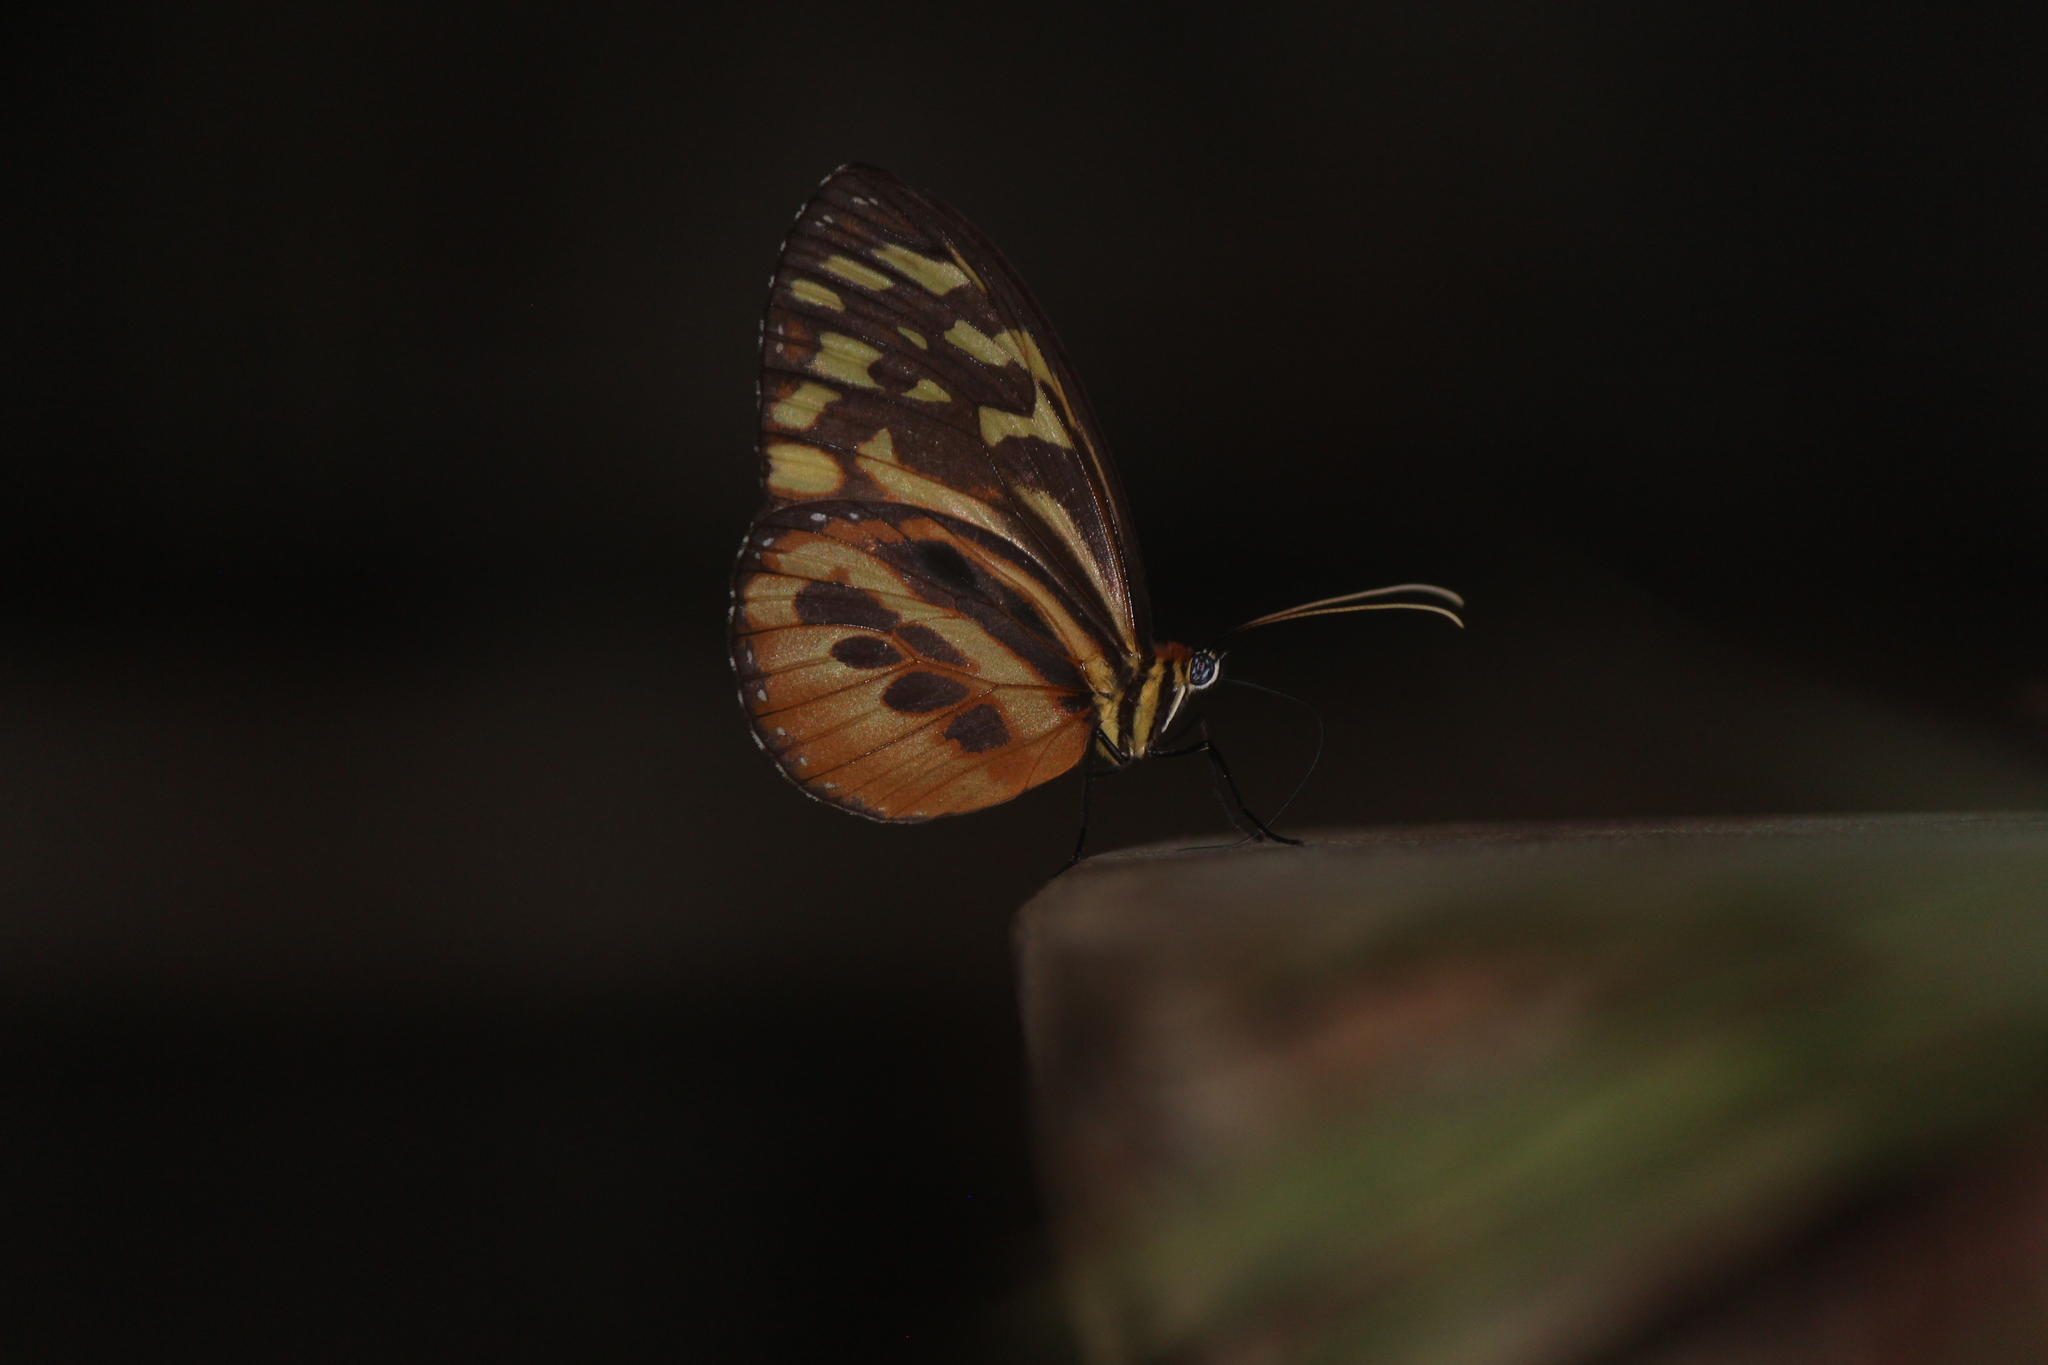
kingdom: Animalia
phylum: Arthropoda
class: Insecta
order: Lepidoptera
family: Nymphalidae
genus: Tithorea
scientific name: Tithorea harmonia
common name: Harmonia tigerwing
